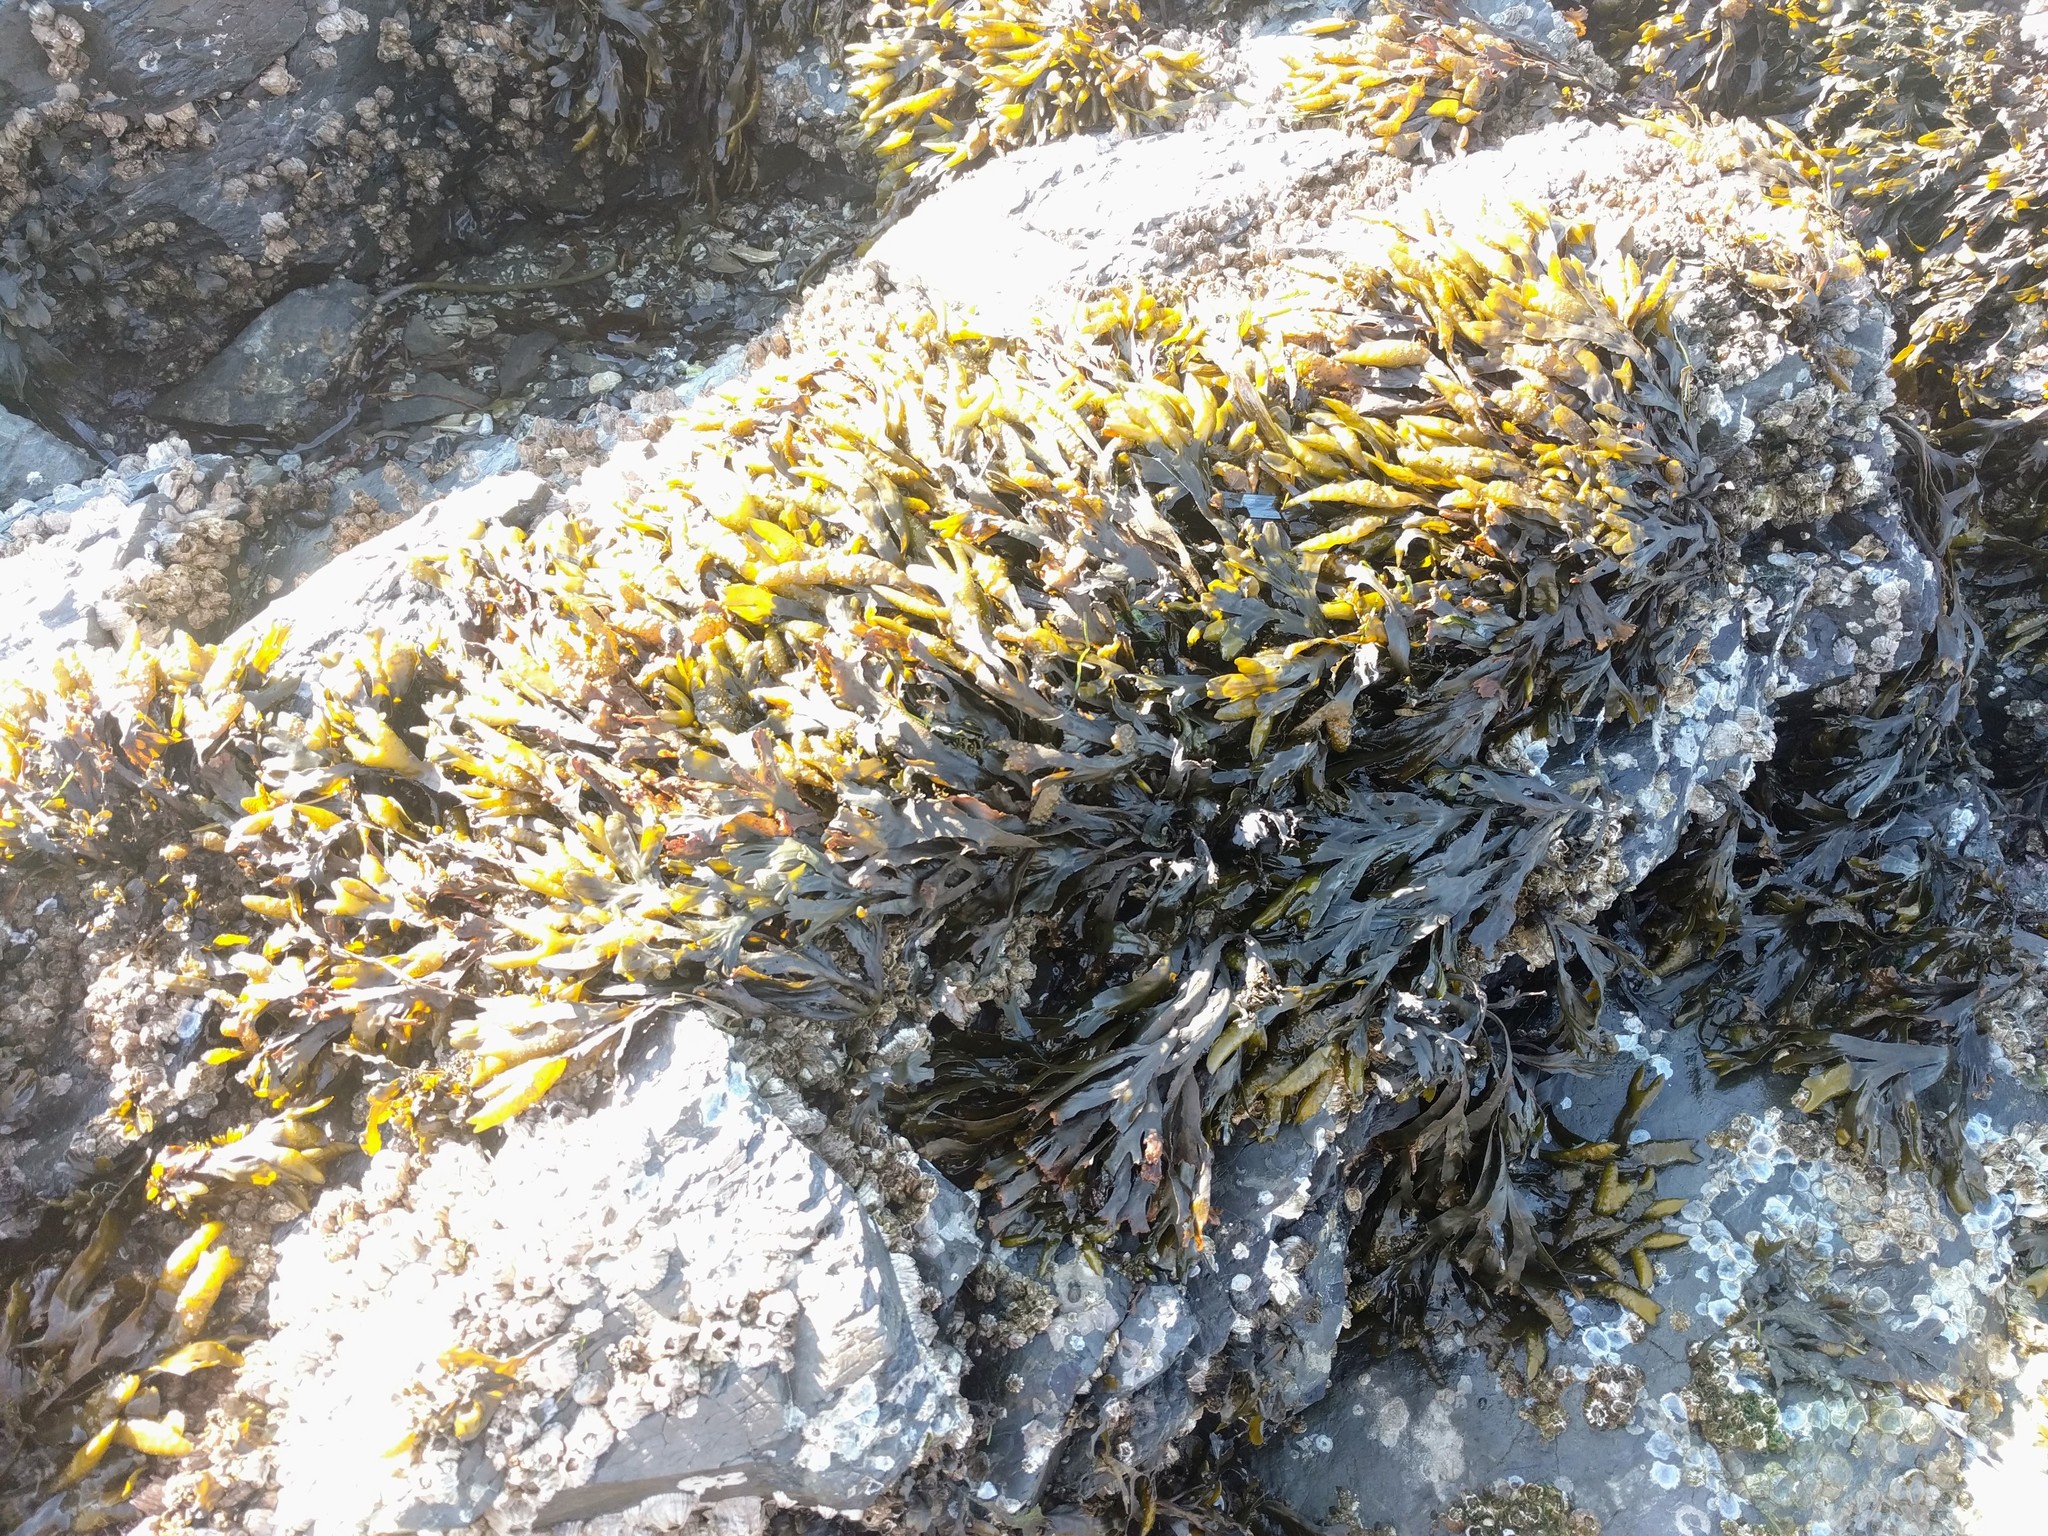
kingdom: Chromista
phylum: Ochrophyta
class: Phaeophyceae
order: Fucales
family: Fucaceae
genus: Fucus
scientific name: Fucus distichus
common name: Rockweed
